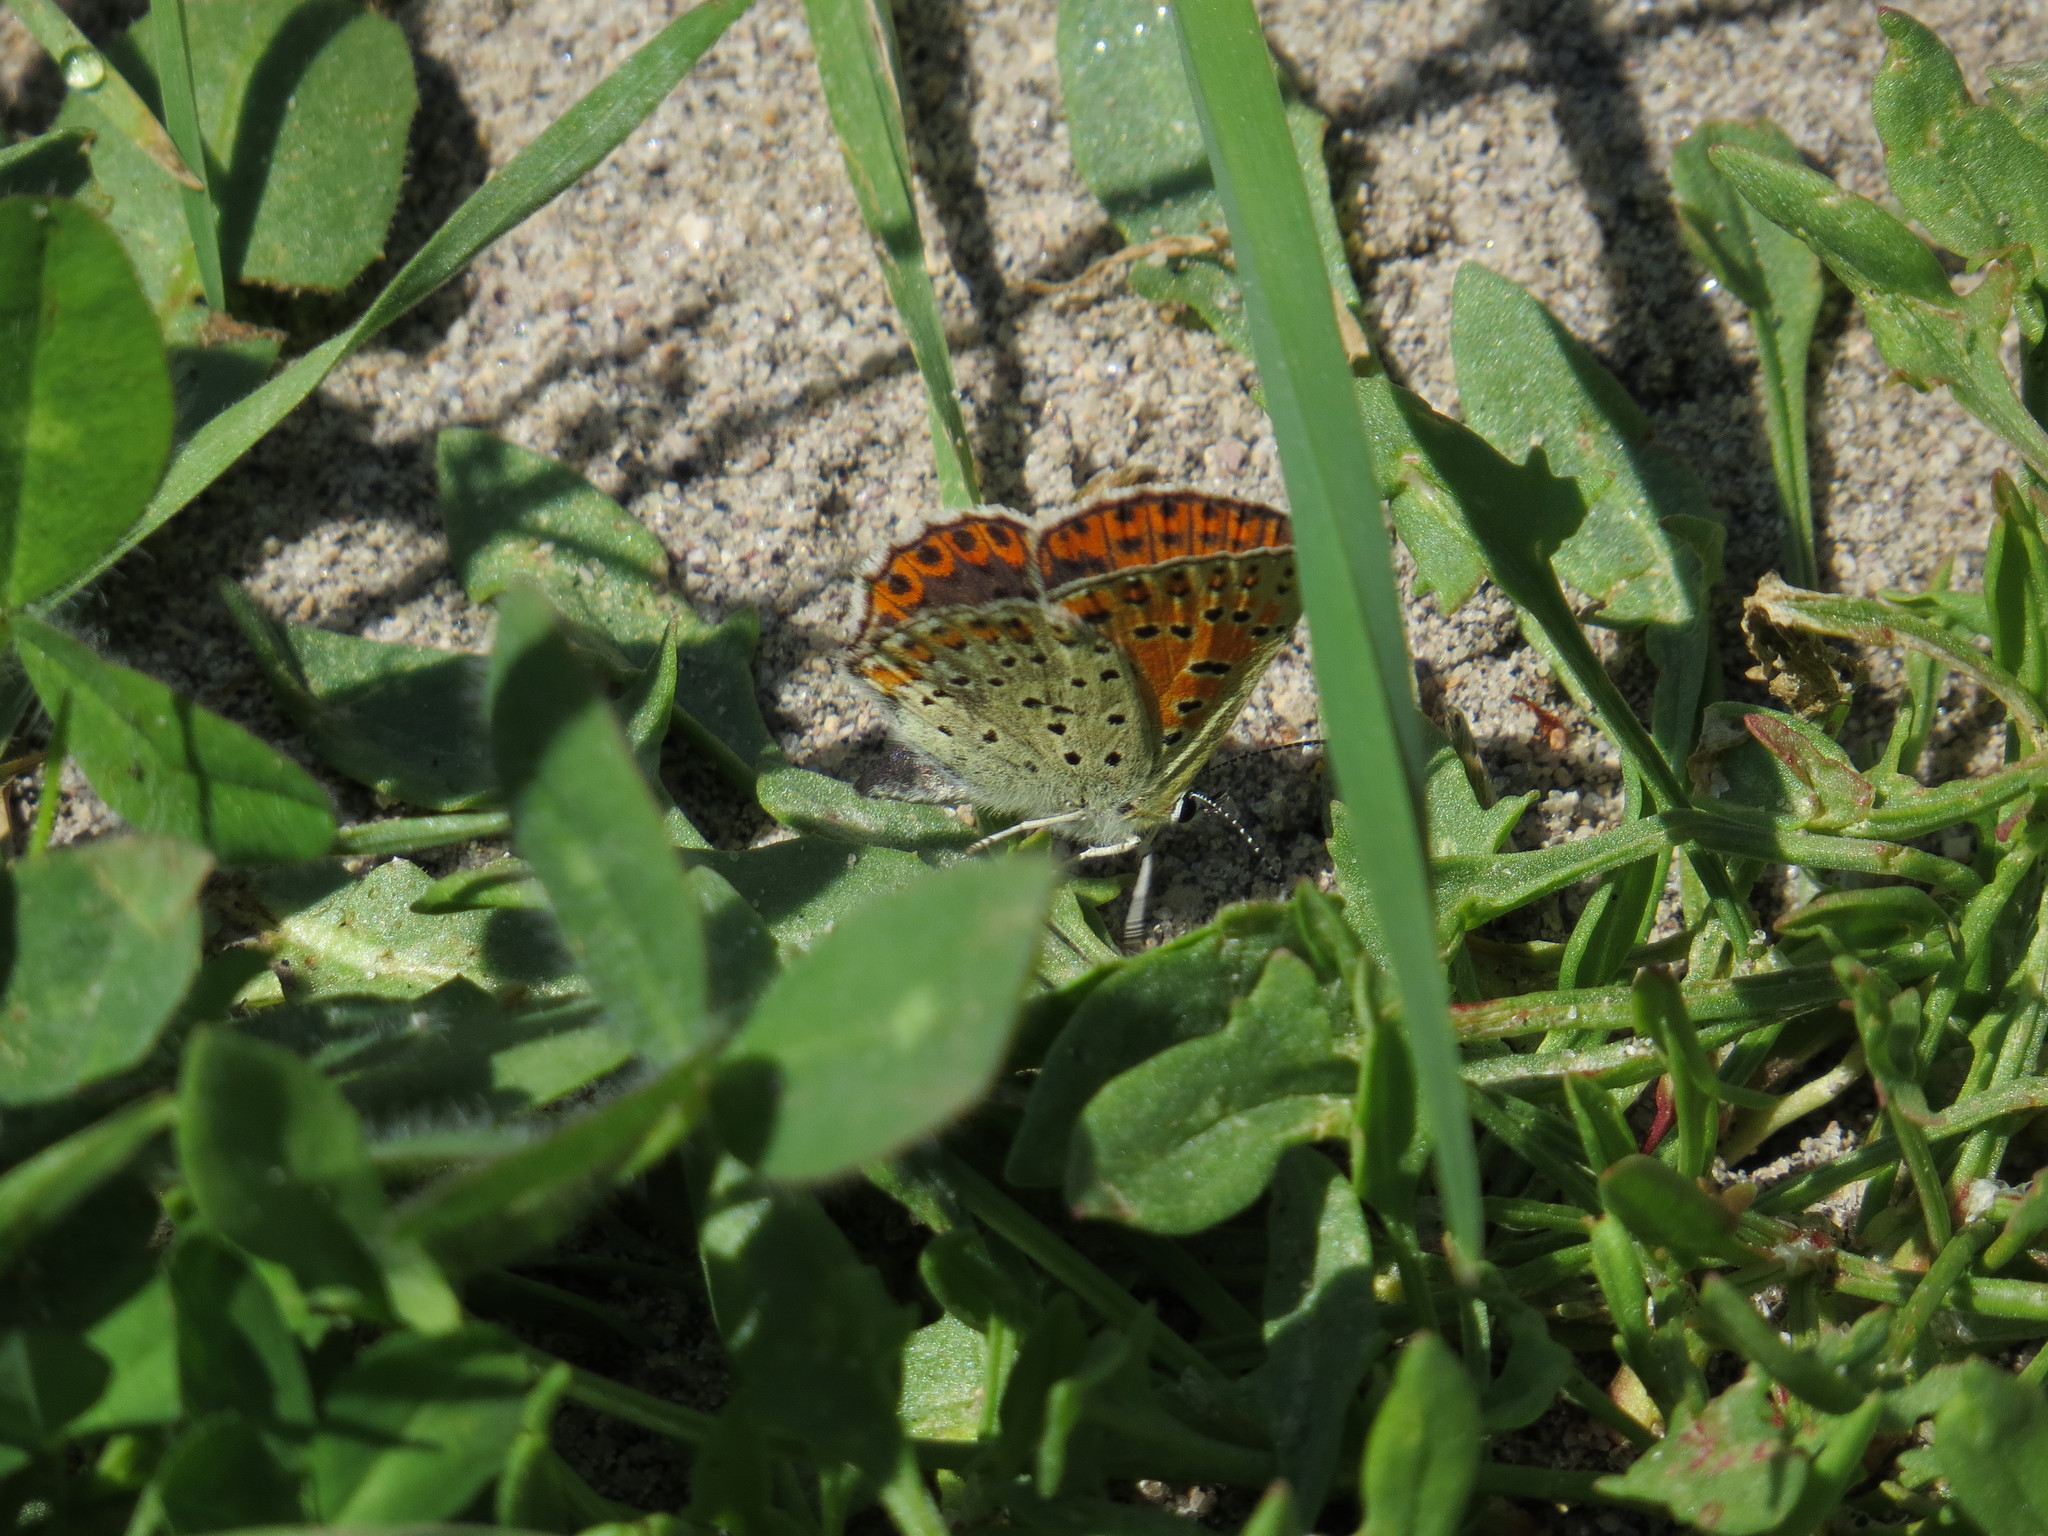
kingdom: Animalia
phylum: Arthropoda
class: Insecta
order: Lepidoptera
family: Lycaenidae
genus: Loweia
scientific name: Loweia tityrus
